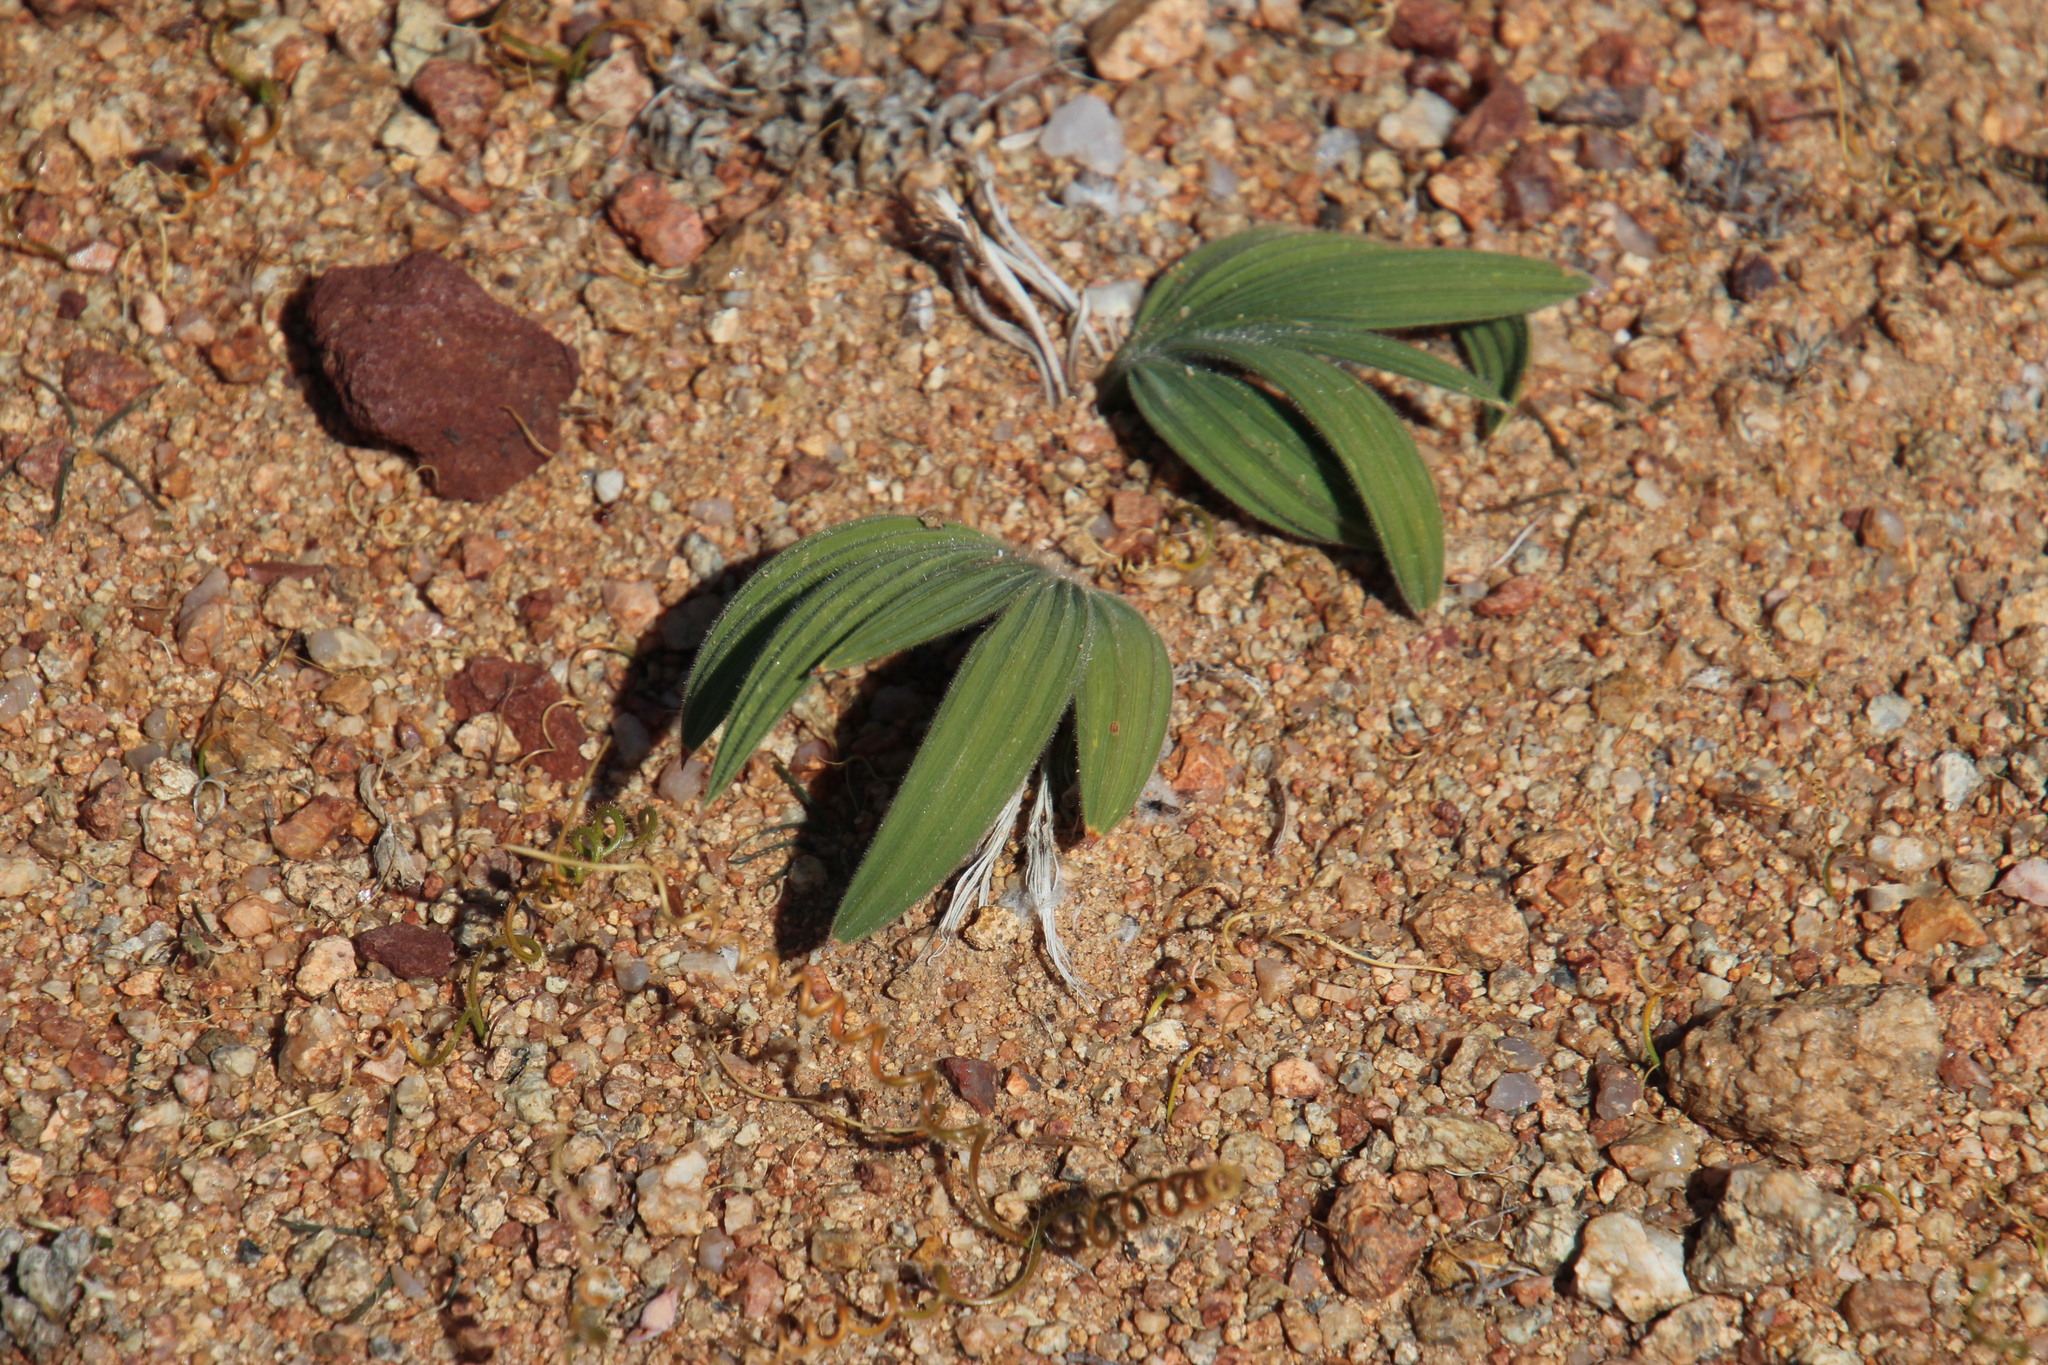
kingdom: Plantae
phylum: Tracheophyta
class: Liliopsida
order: Asparagales
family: Iridaceae
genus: Babiana
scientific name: Babiana curviscapa
